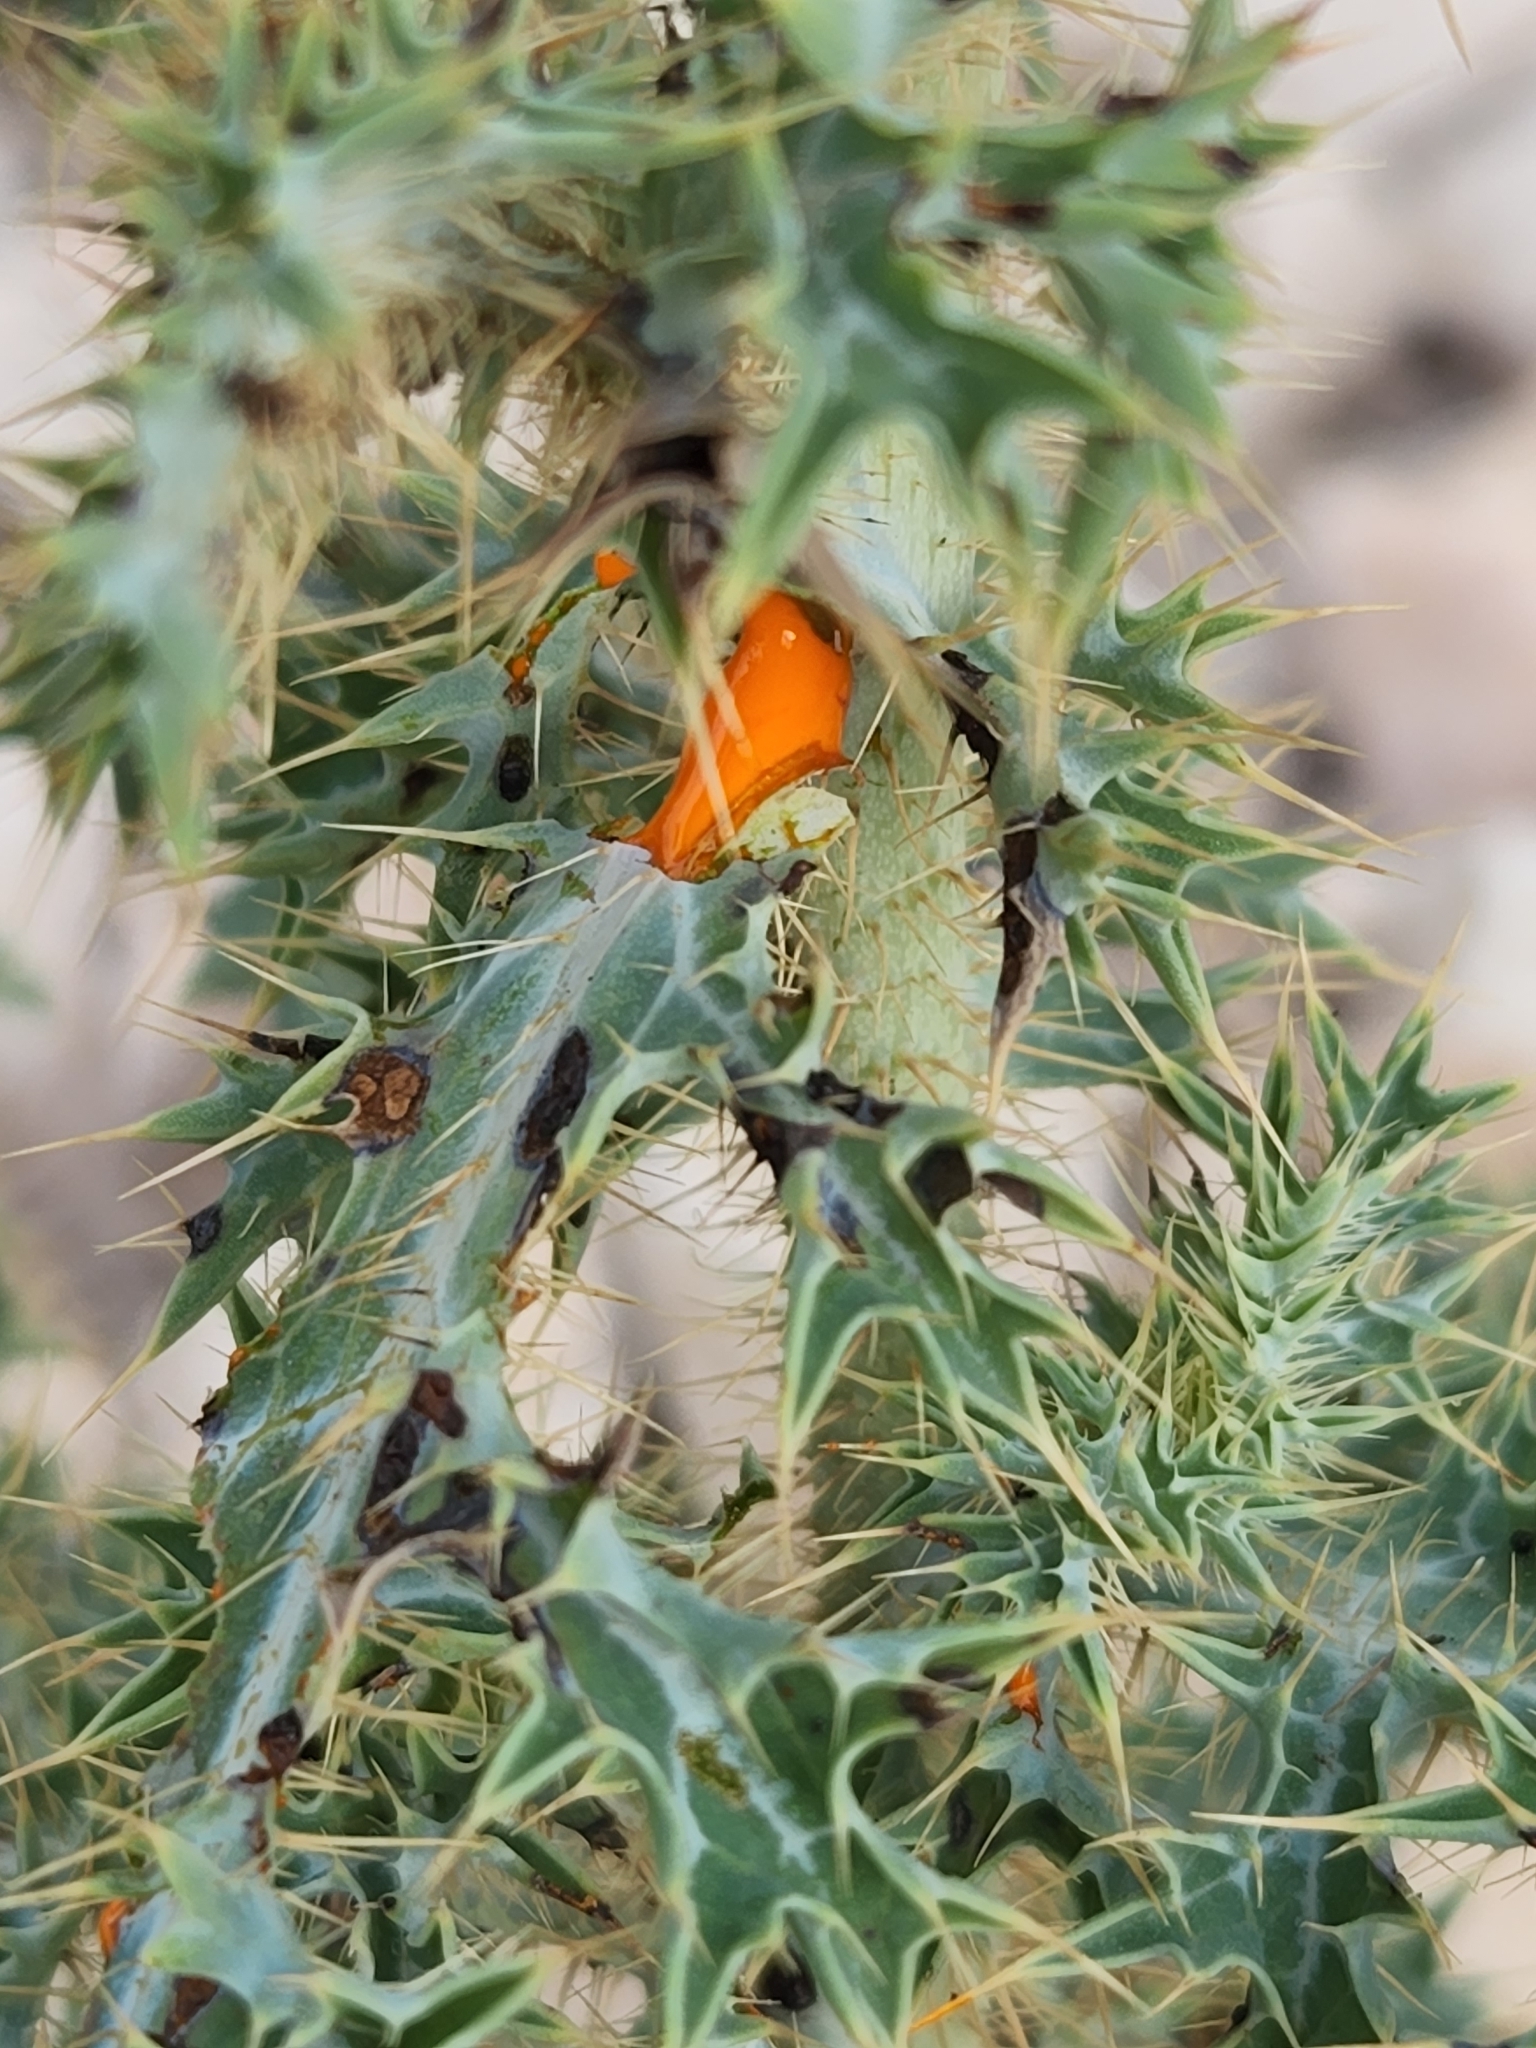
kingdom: Plantae
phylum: Tracheophyta
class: Magnoliopsida
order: Ranunculales
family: Papaveraceae
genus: Argemone
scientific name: Argemone aurantiaca
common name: Texas prickly-poppy
